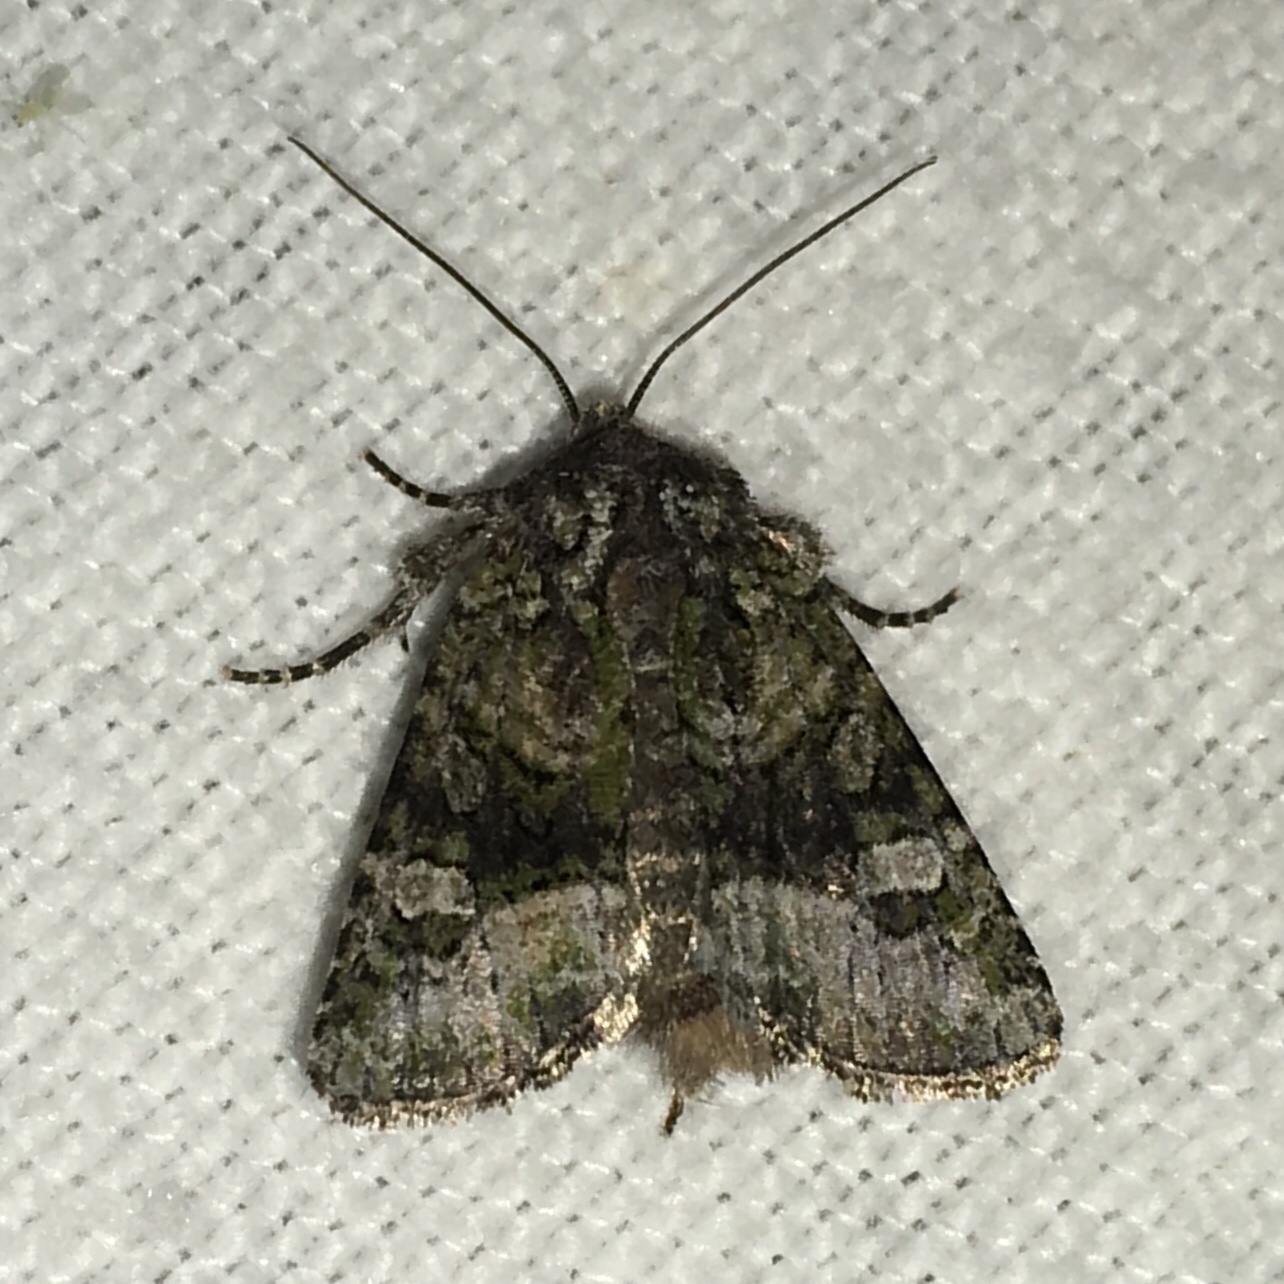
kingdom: Animalia
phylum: Arthropoda
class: Insecta
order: Lepidoptera
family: Noctuidae
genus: Lacinipolia
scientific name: Lacinipolia olivacea
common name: Olive arches moth
